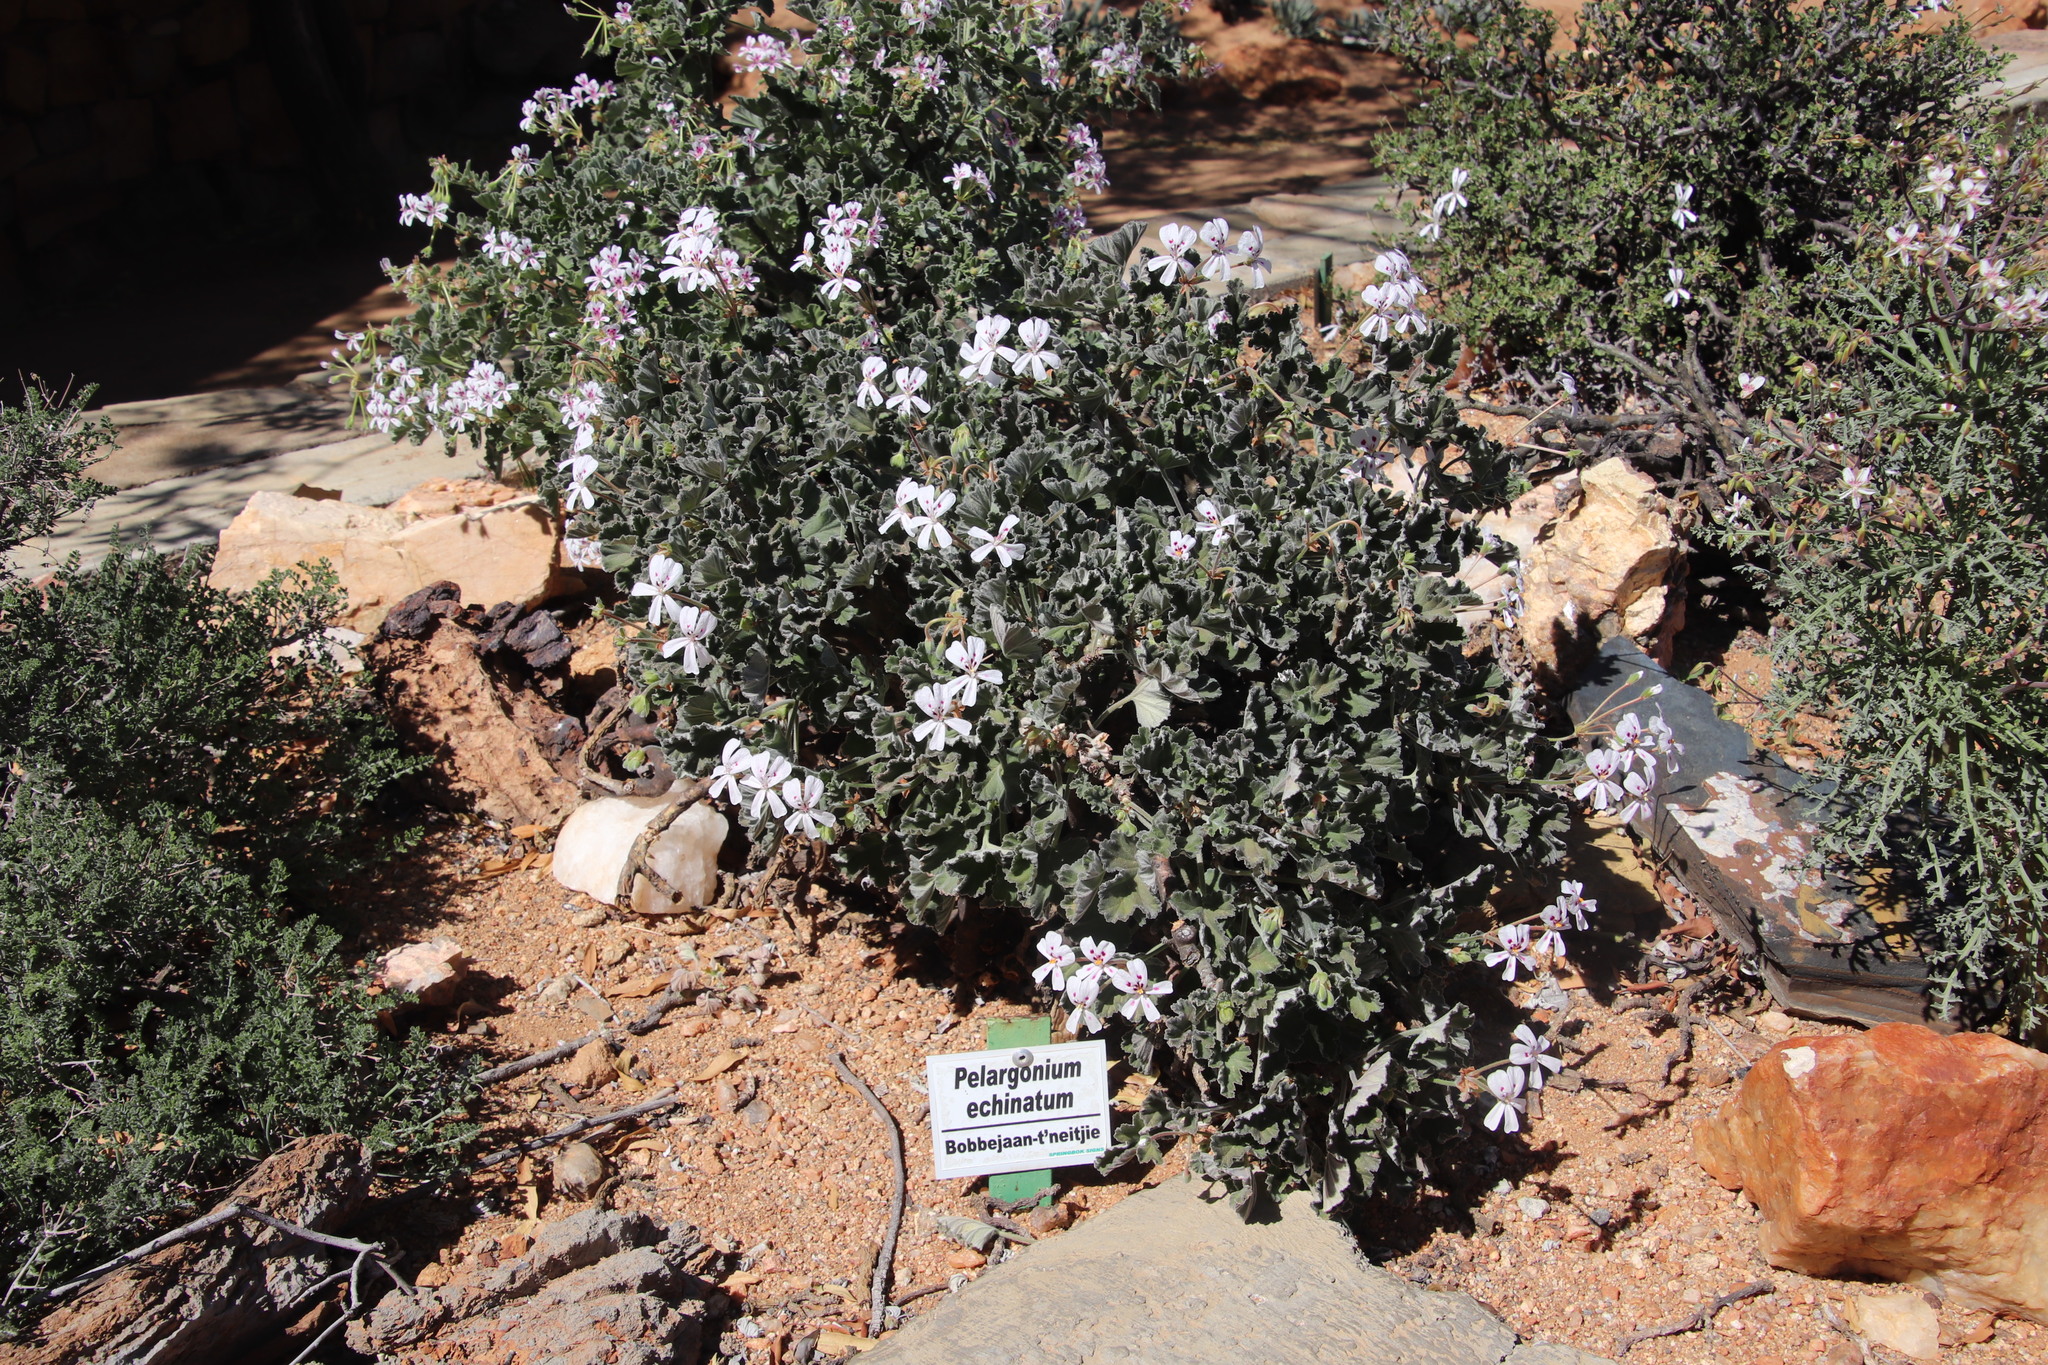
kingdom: Plantae
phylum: Tracheophyta
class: Magnoliopsida
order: Geraniales
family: Geraniaceae
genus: Pelargonium
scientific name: Pelargonium echinatum
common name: Cactus geranium
